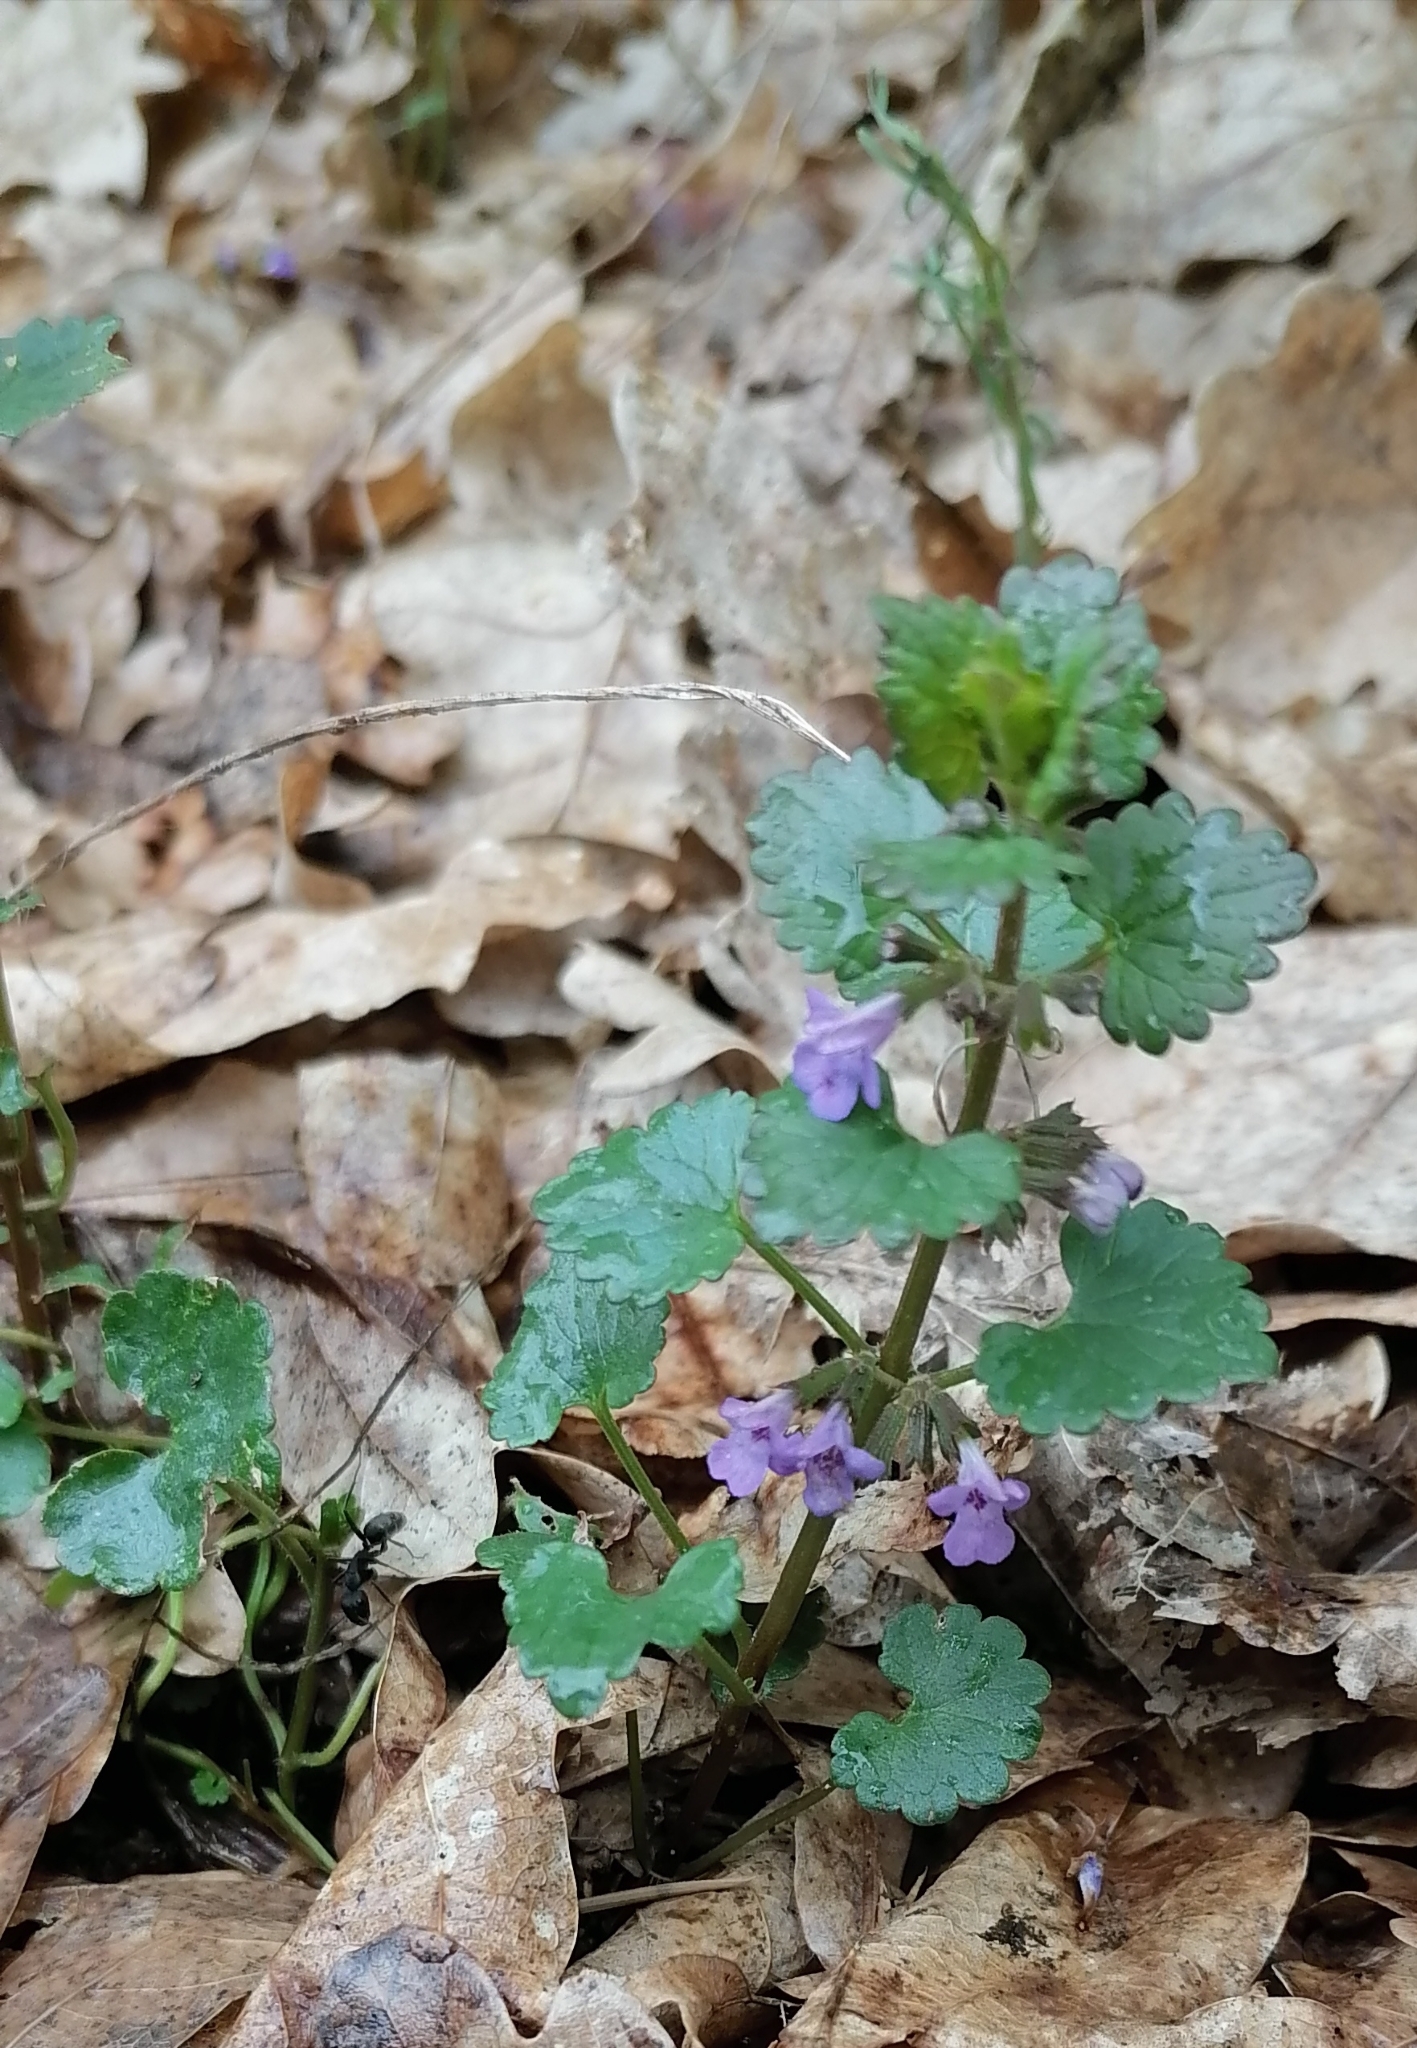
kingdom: Plantae
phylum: Tracheophyta
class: Magnoliopsida
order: Lamiales
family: Lamiaceae
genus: Glechoma
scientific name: Glechoma hederacea
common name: Ground ivy
